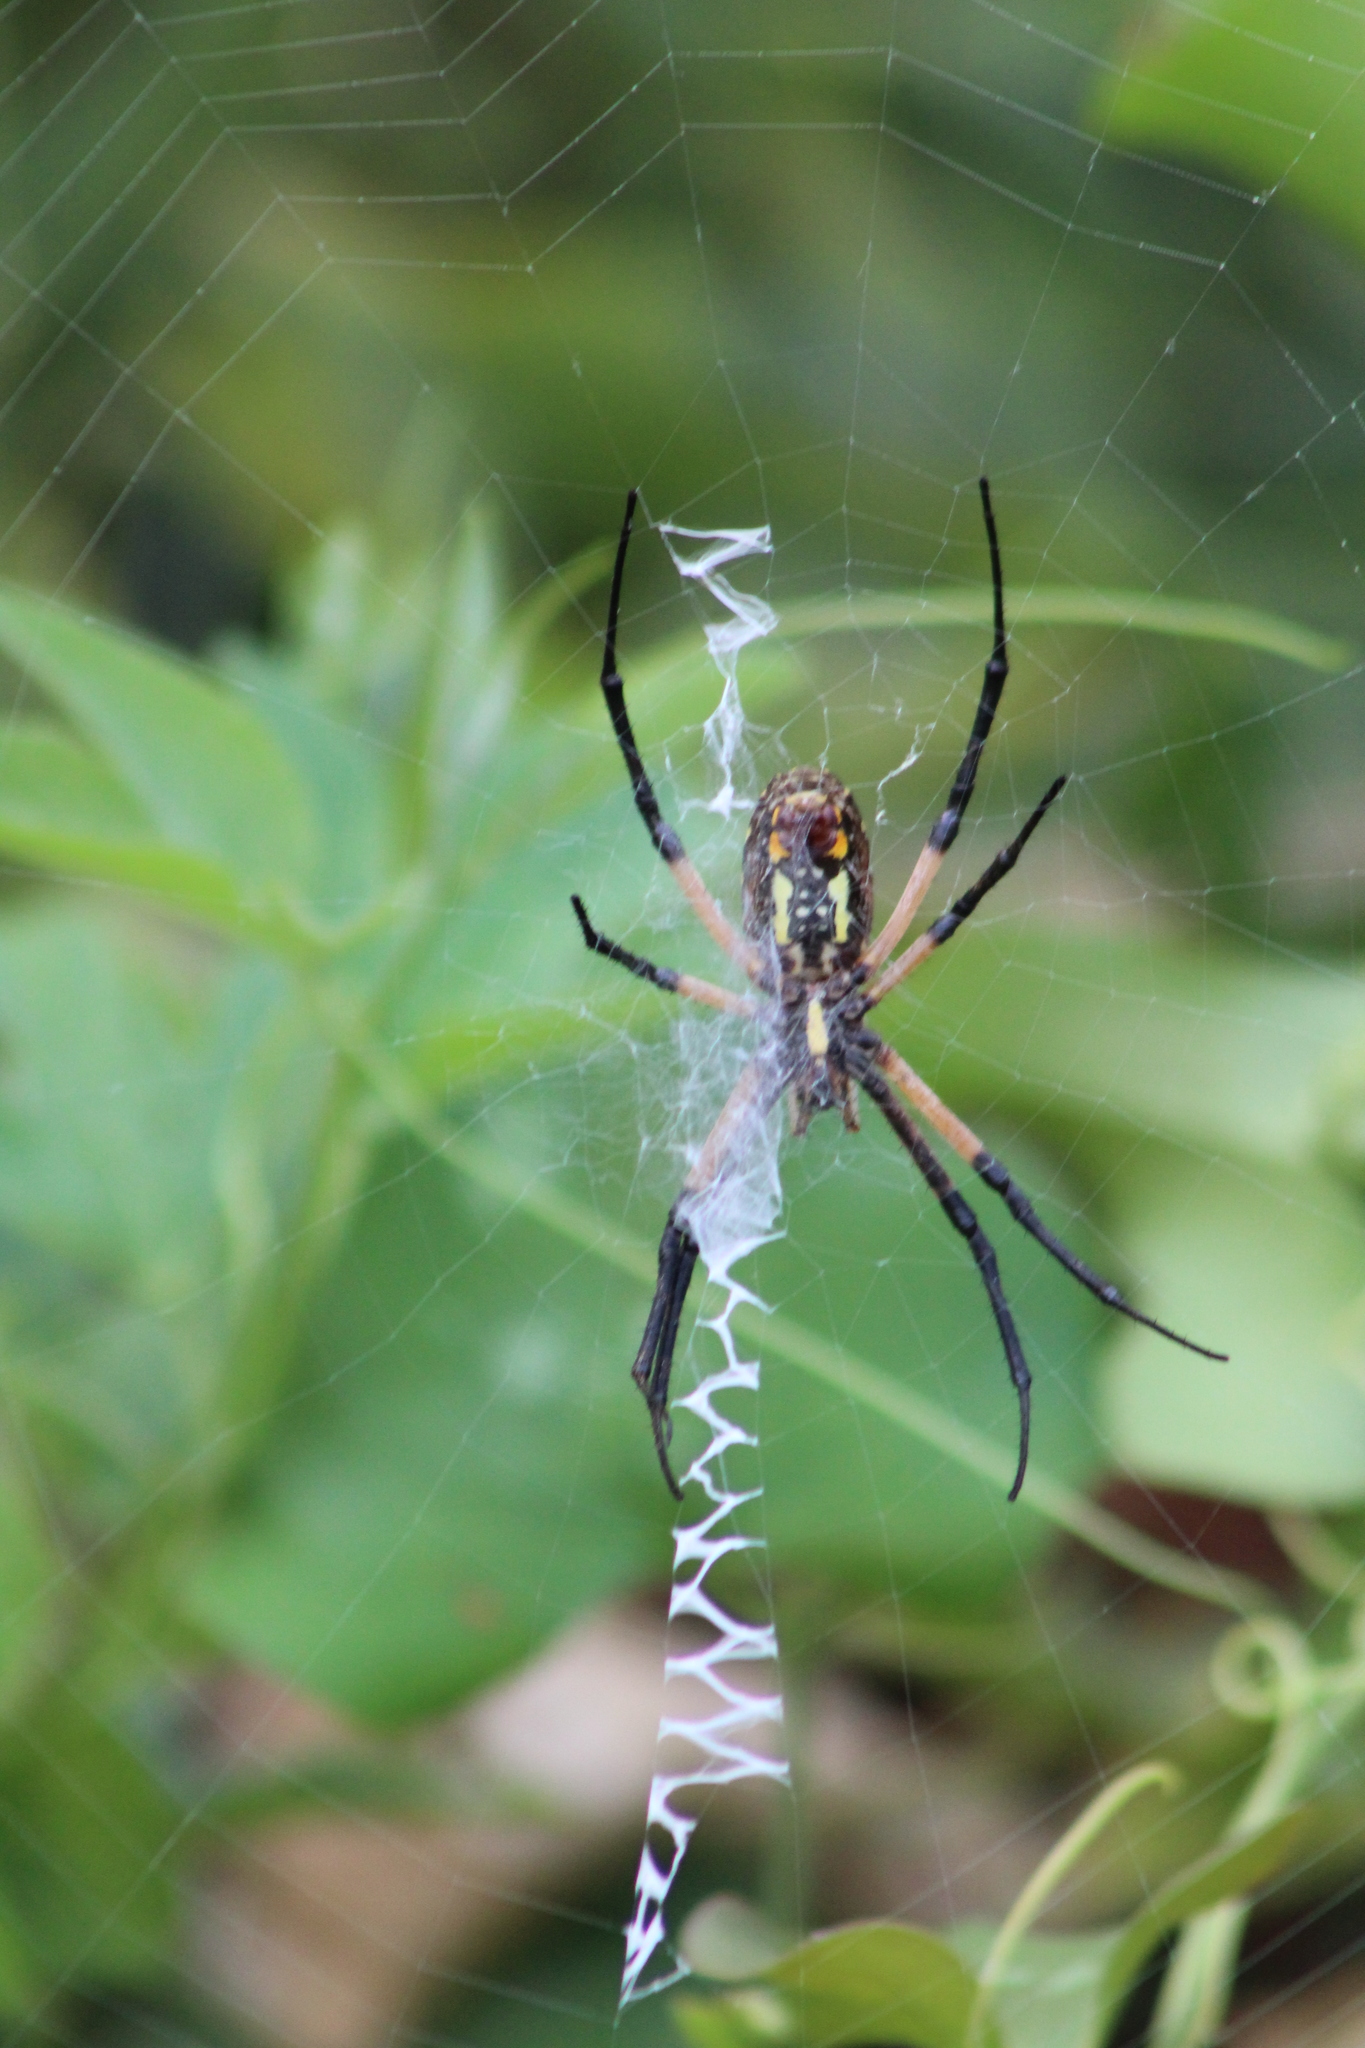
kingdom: Animalia
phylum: Arthropoda
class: Arachnida
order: Araneae
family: Araneidae
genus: Argiope
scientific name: Argiope aurantia
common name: Orb weavers
